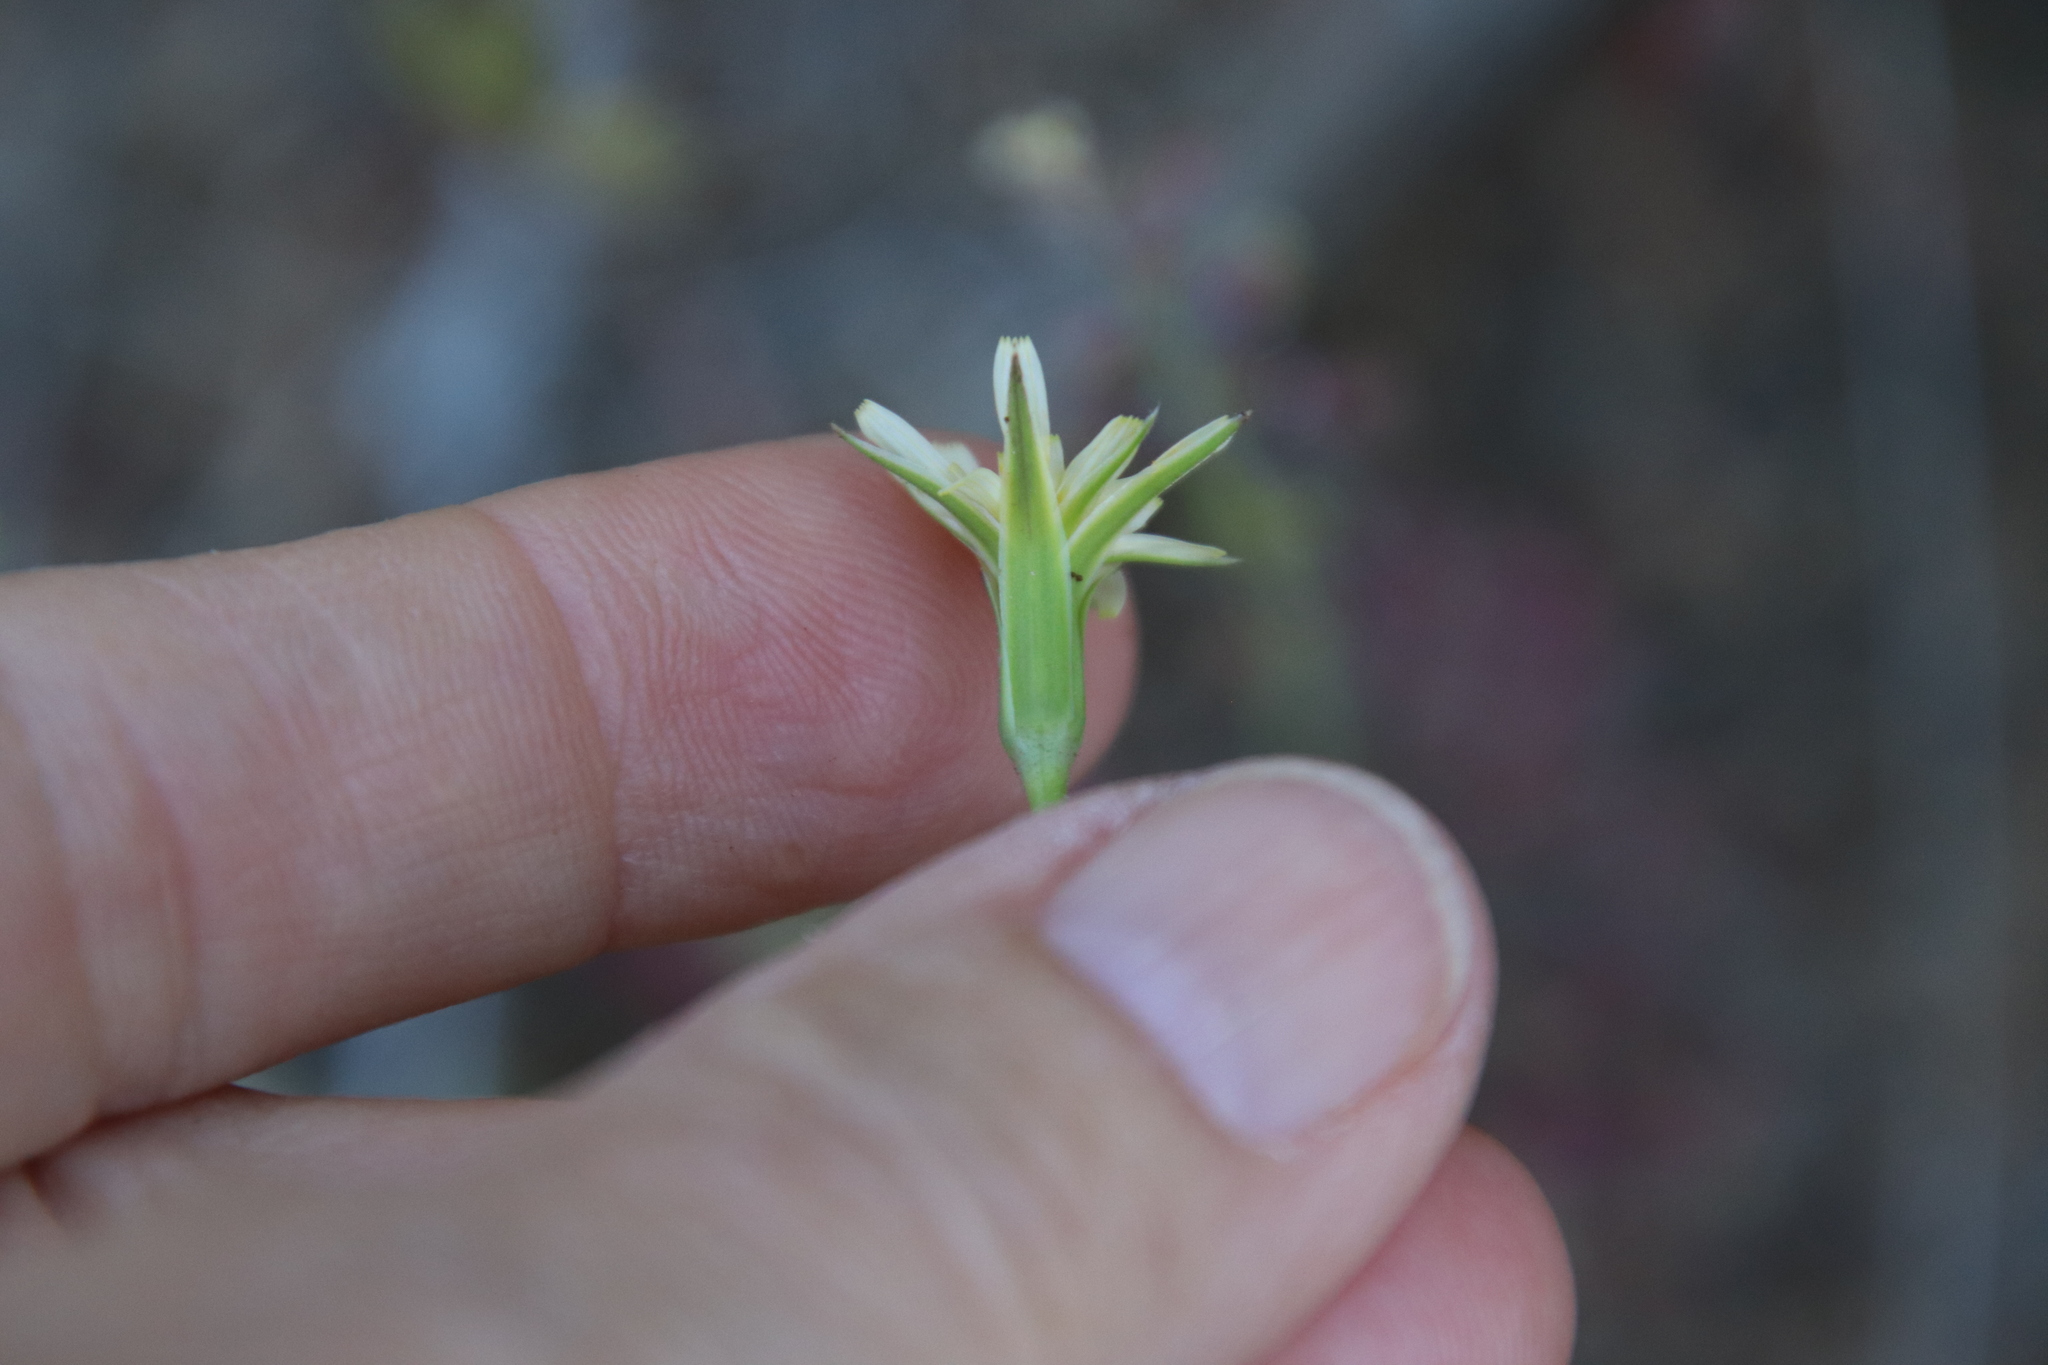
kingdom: Plantae
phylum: Tracheophyta
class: Magnoliopsida
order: Asterales
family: Asteraceae
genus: Microseris
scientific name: Microseris lindleyi
